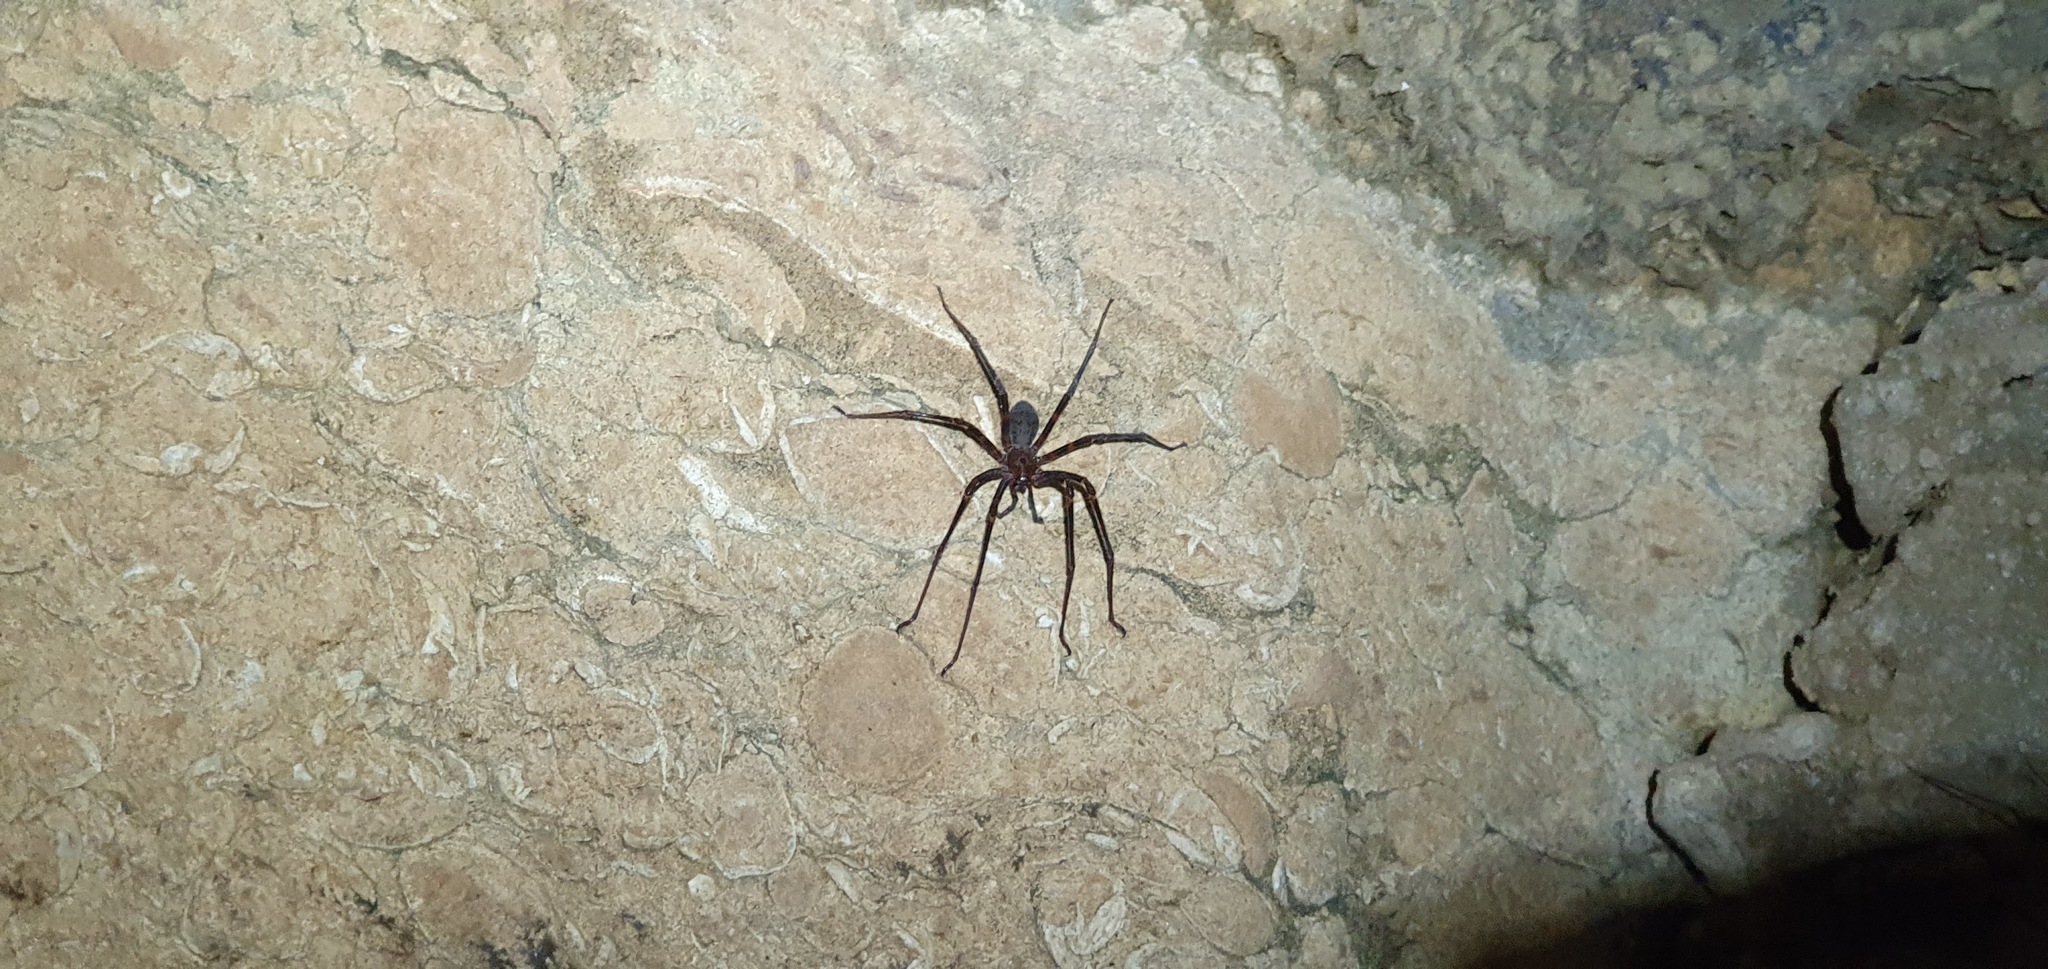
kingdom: Animalia
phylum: Arthropoda
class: Arachnida
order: Araneae
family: Gradungulidae
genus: Spelungula
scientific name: Spelungula cavernicola
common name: Nelson cave spider
